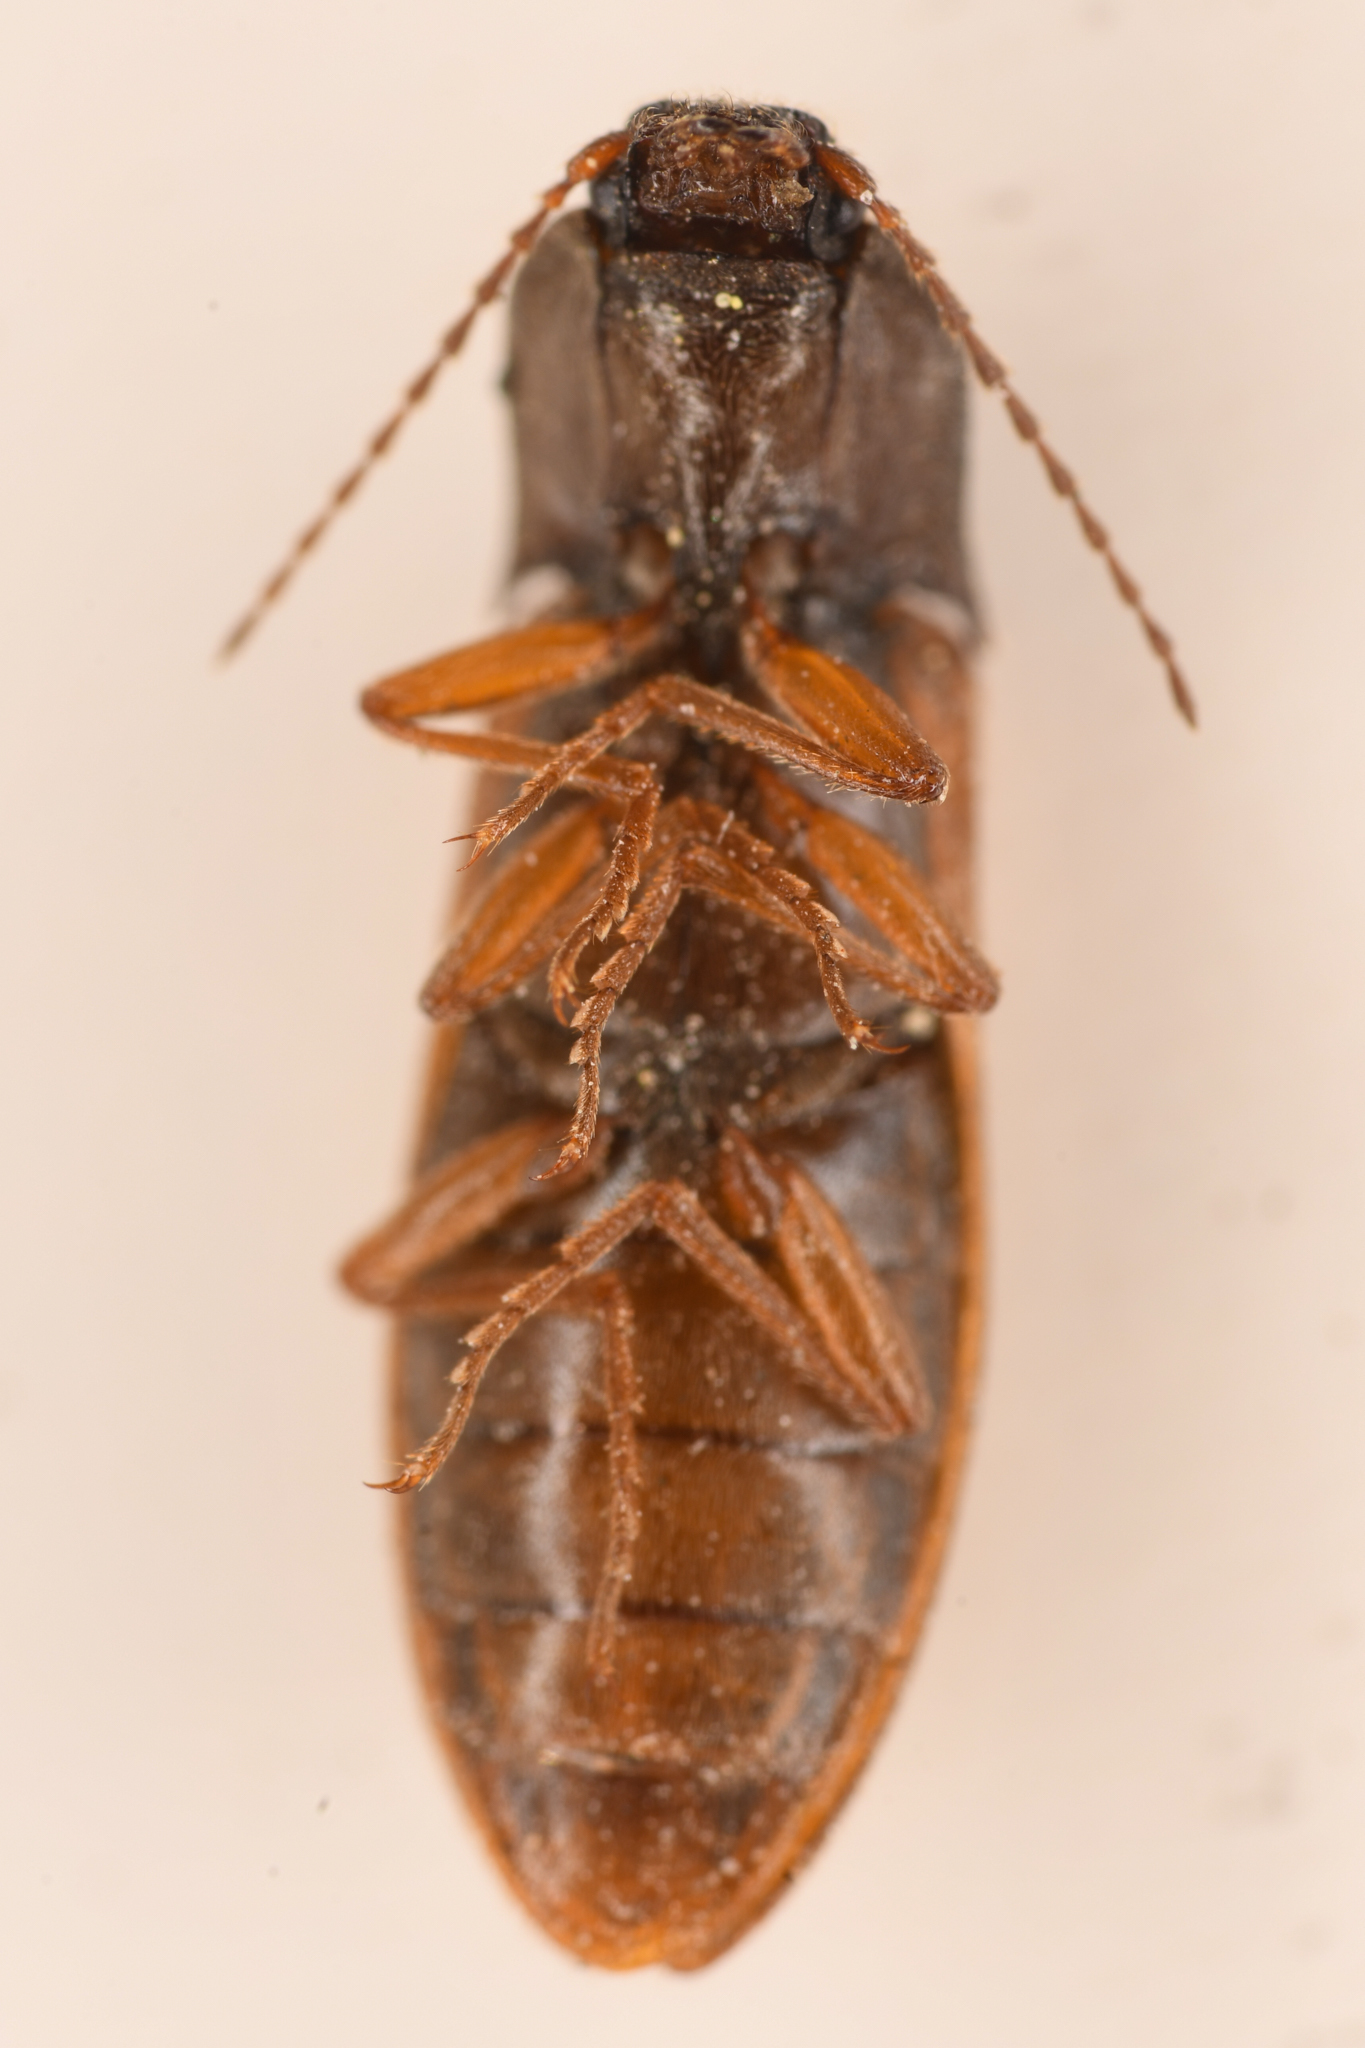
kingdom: Animalia
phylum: Arthropoda
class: Insecta
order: Coleoptera
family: Elateridae
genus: Acteniceromorphus
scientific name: Acteniceromorphus
